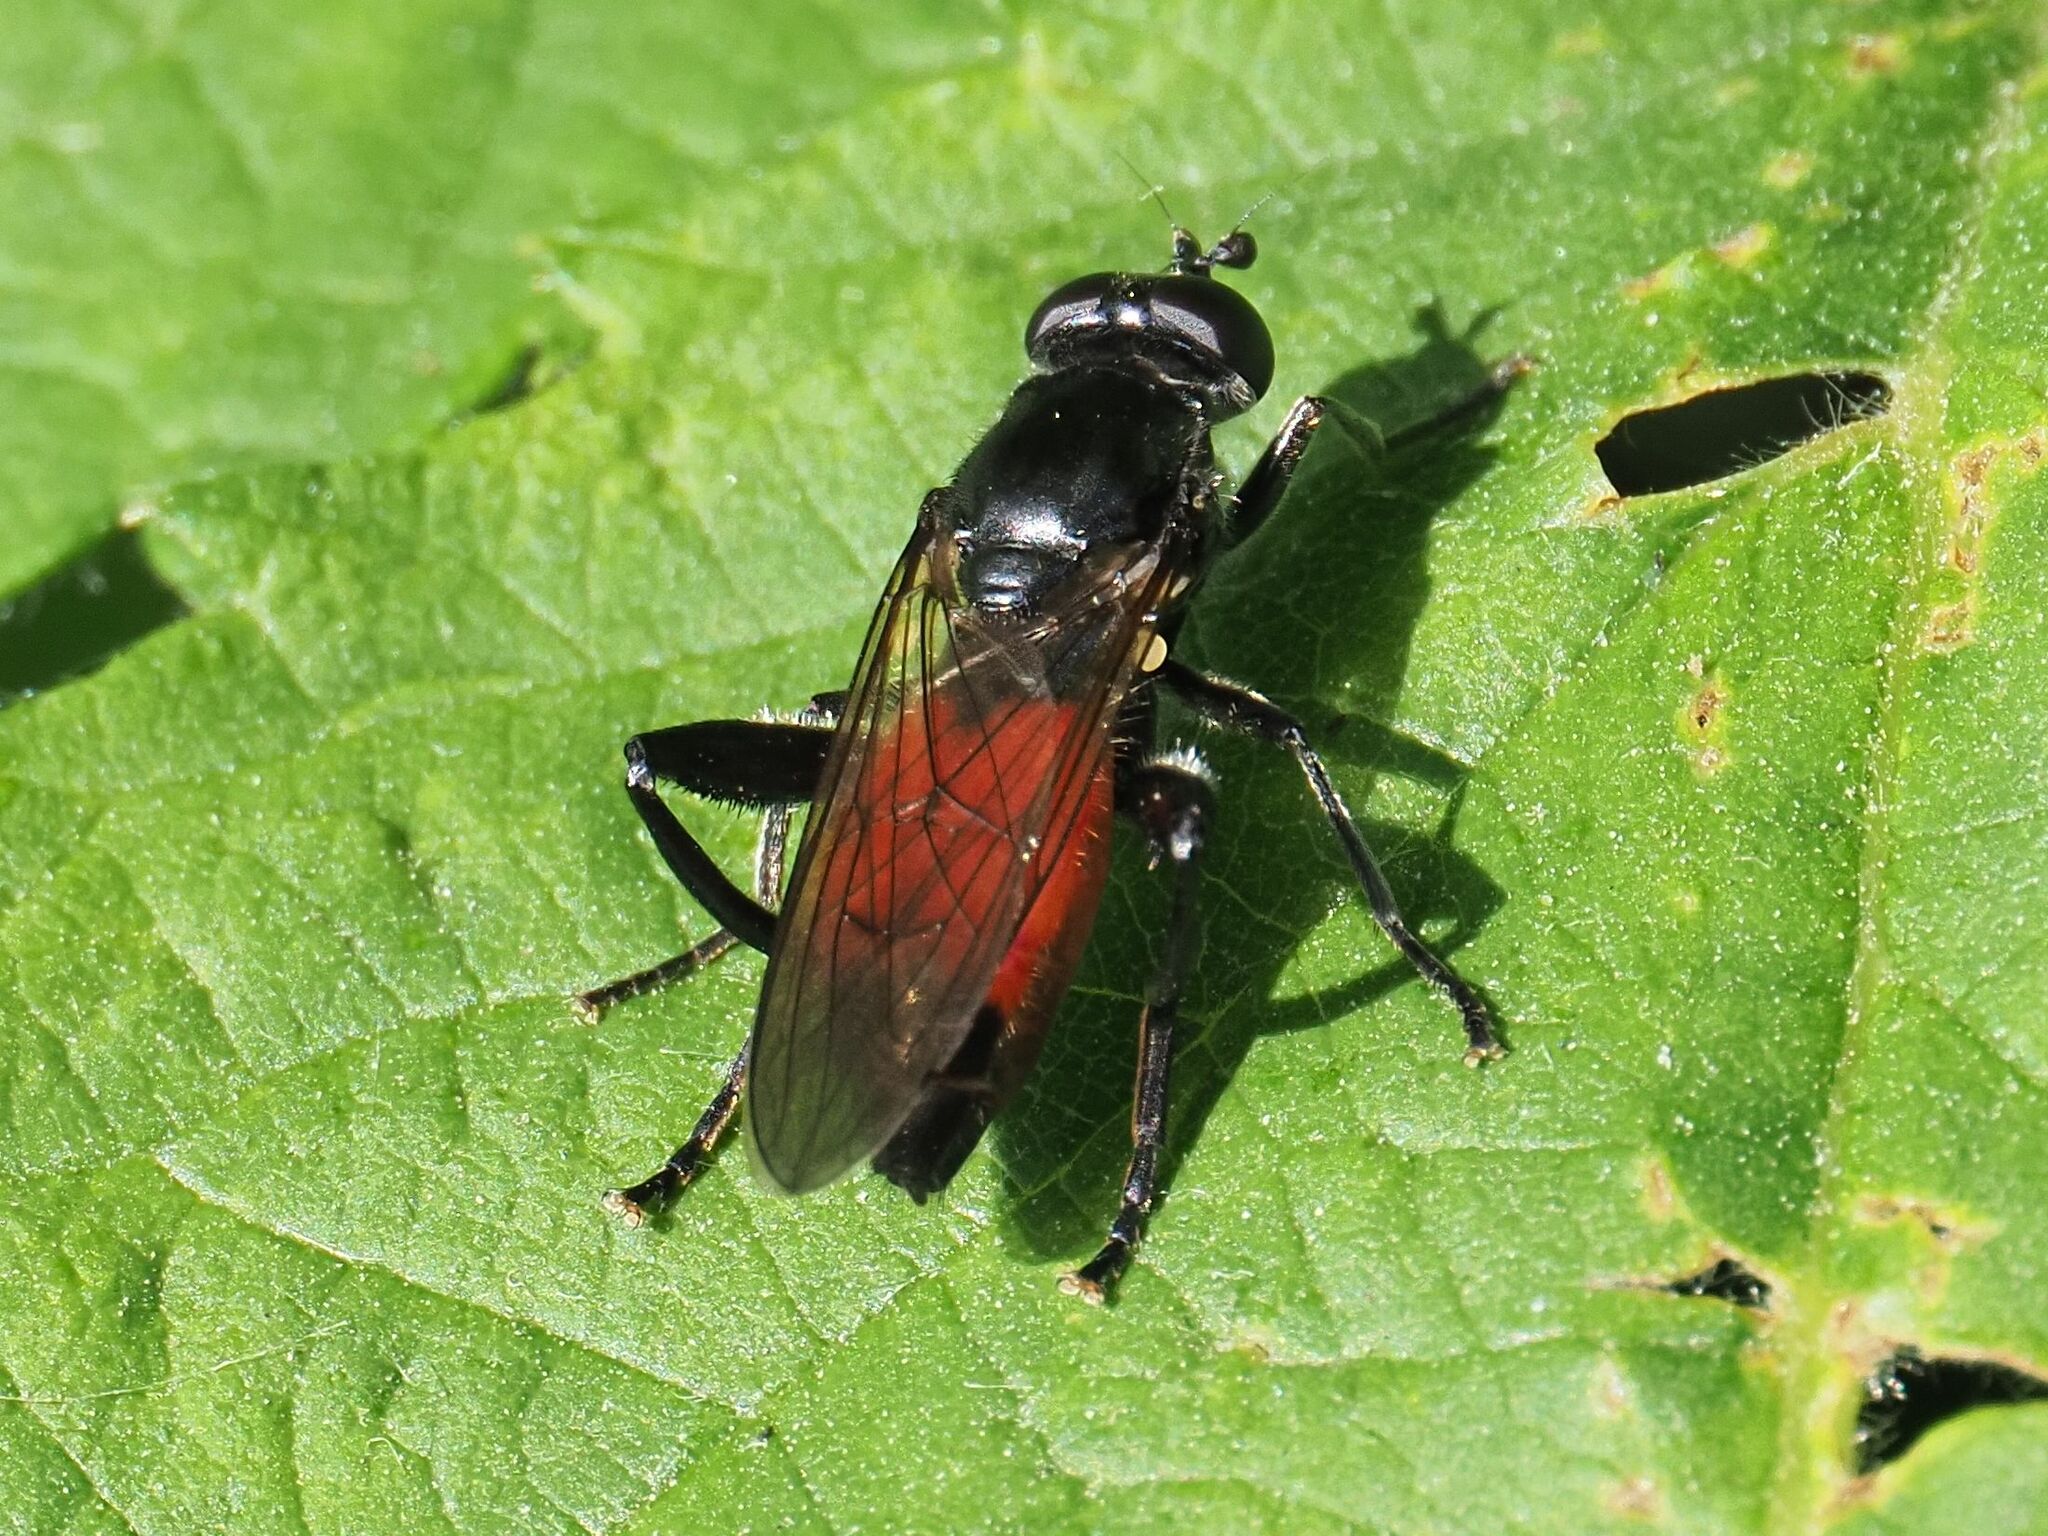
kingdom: Animalia
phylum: Arthropoda
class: Insecta
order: Diptera
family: Syrphidae
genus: Brachypalpoides
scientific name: Brachypalpoides lenta
